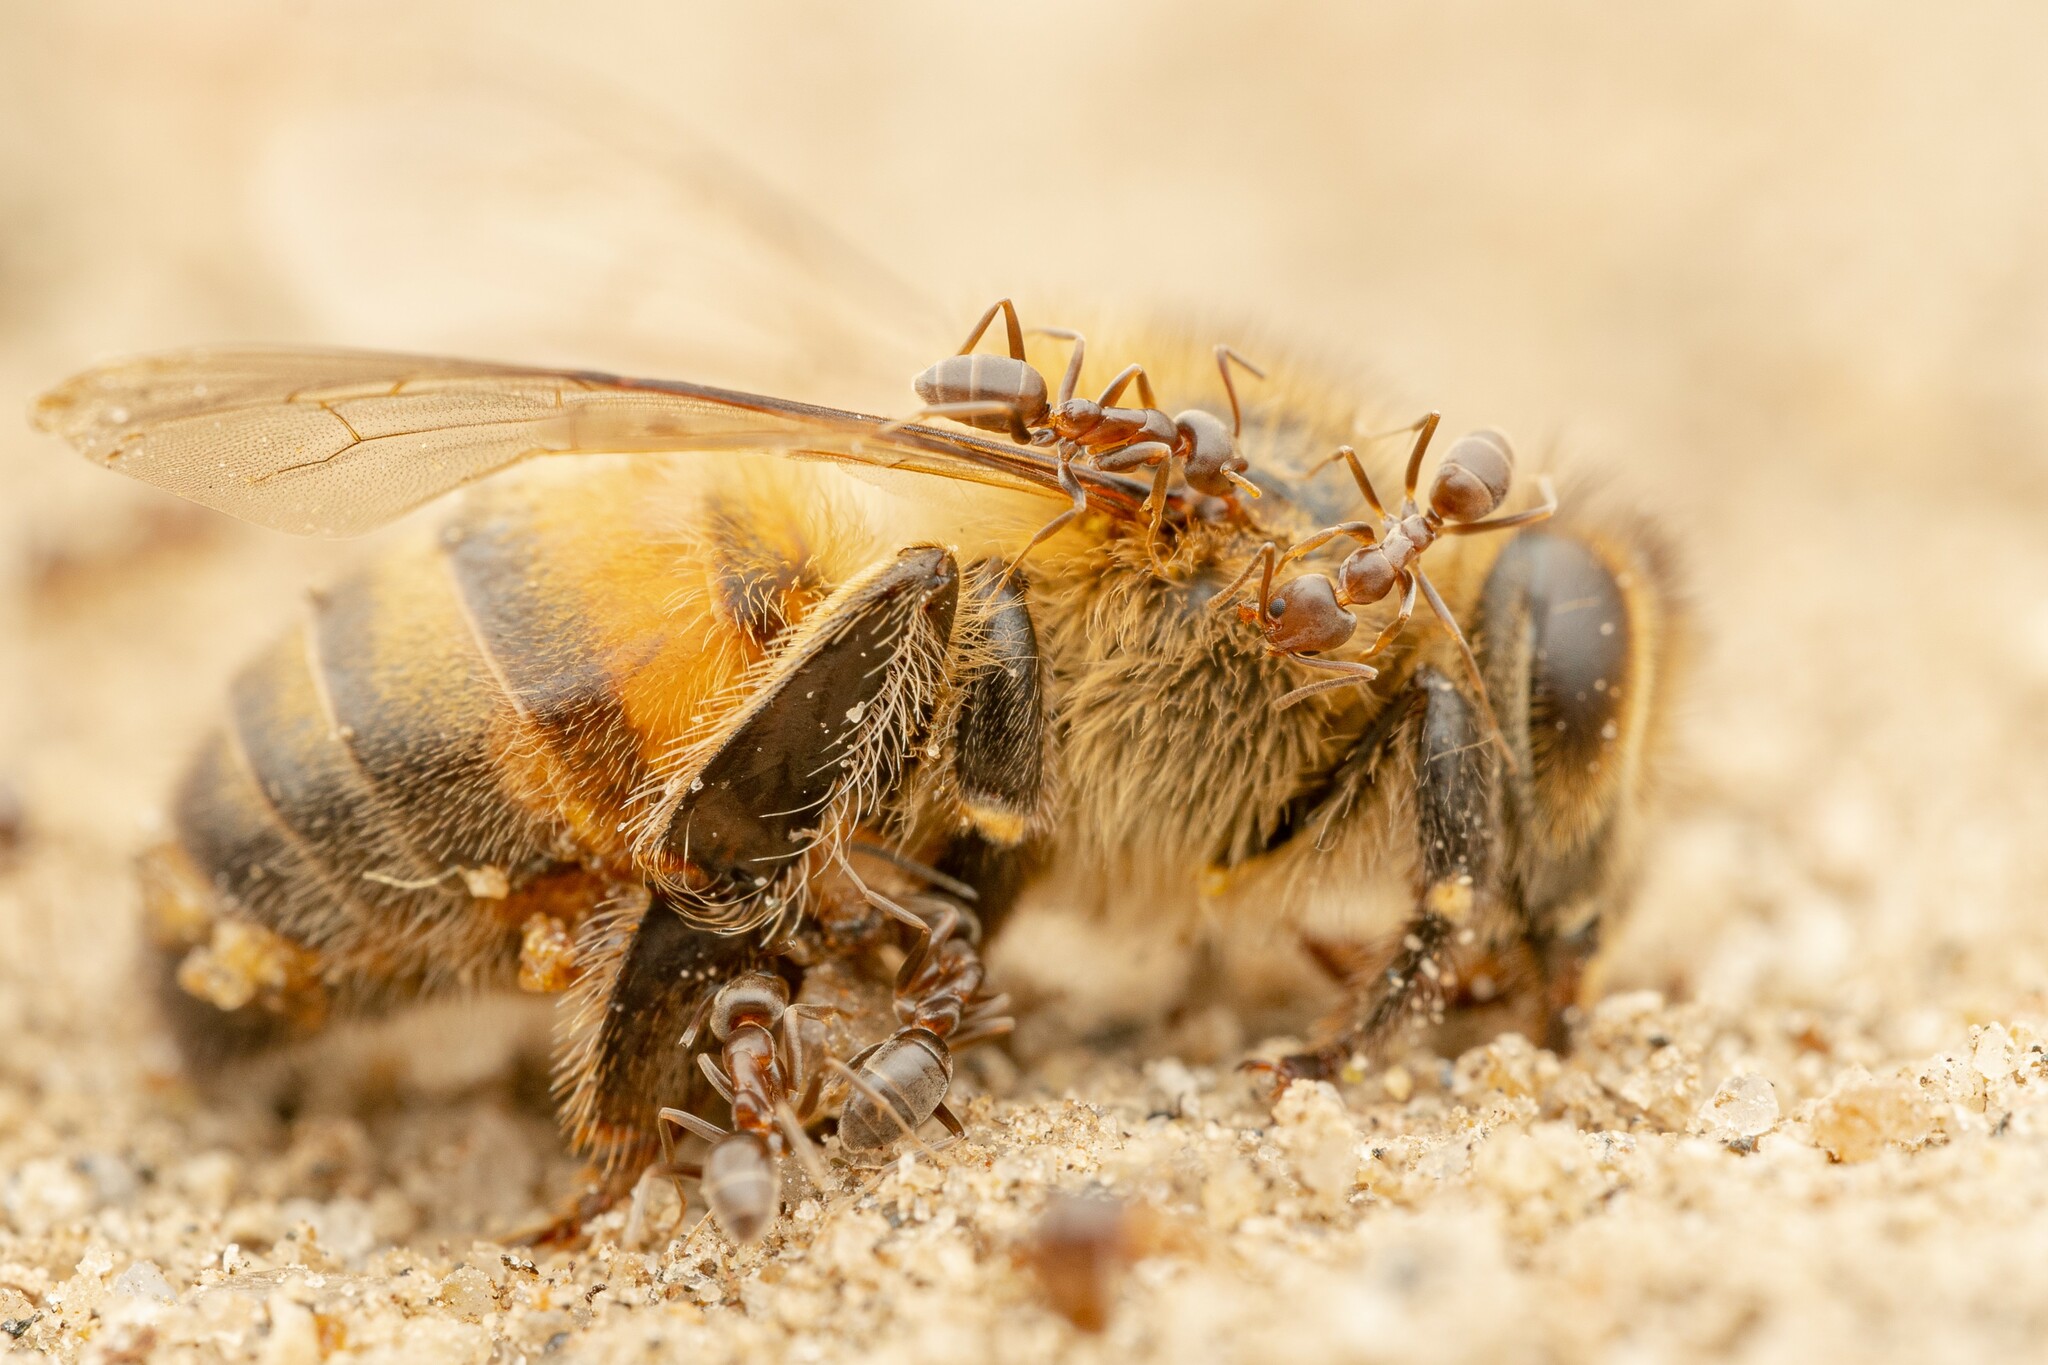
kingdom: Animalia
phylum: Arthropoda
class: Insecta
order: Hymenoptera
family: Formicidae
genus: Linepithema
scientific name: Linepithema humile
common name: Argentine ant
